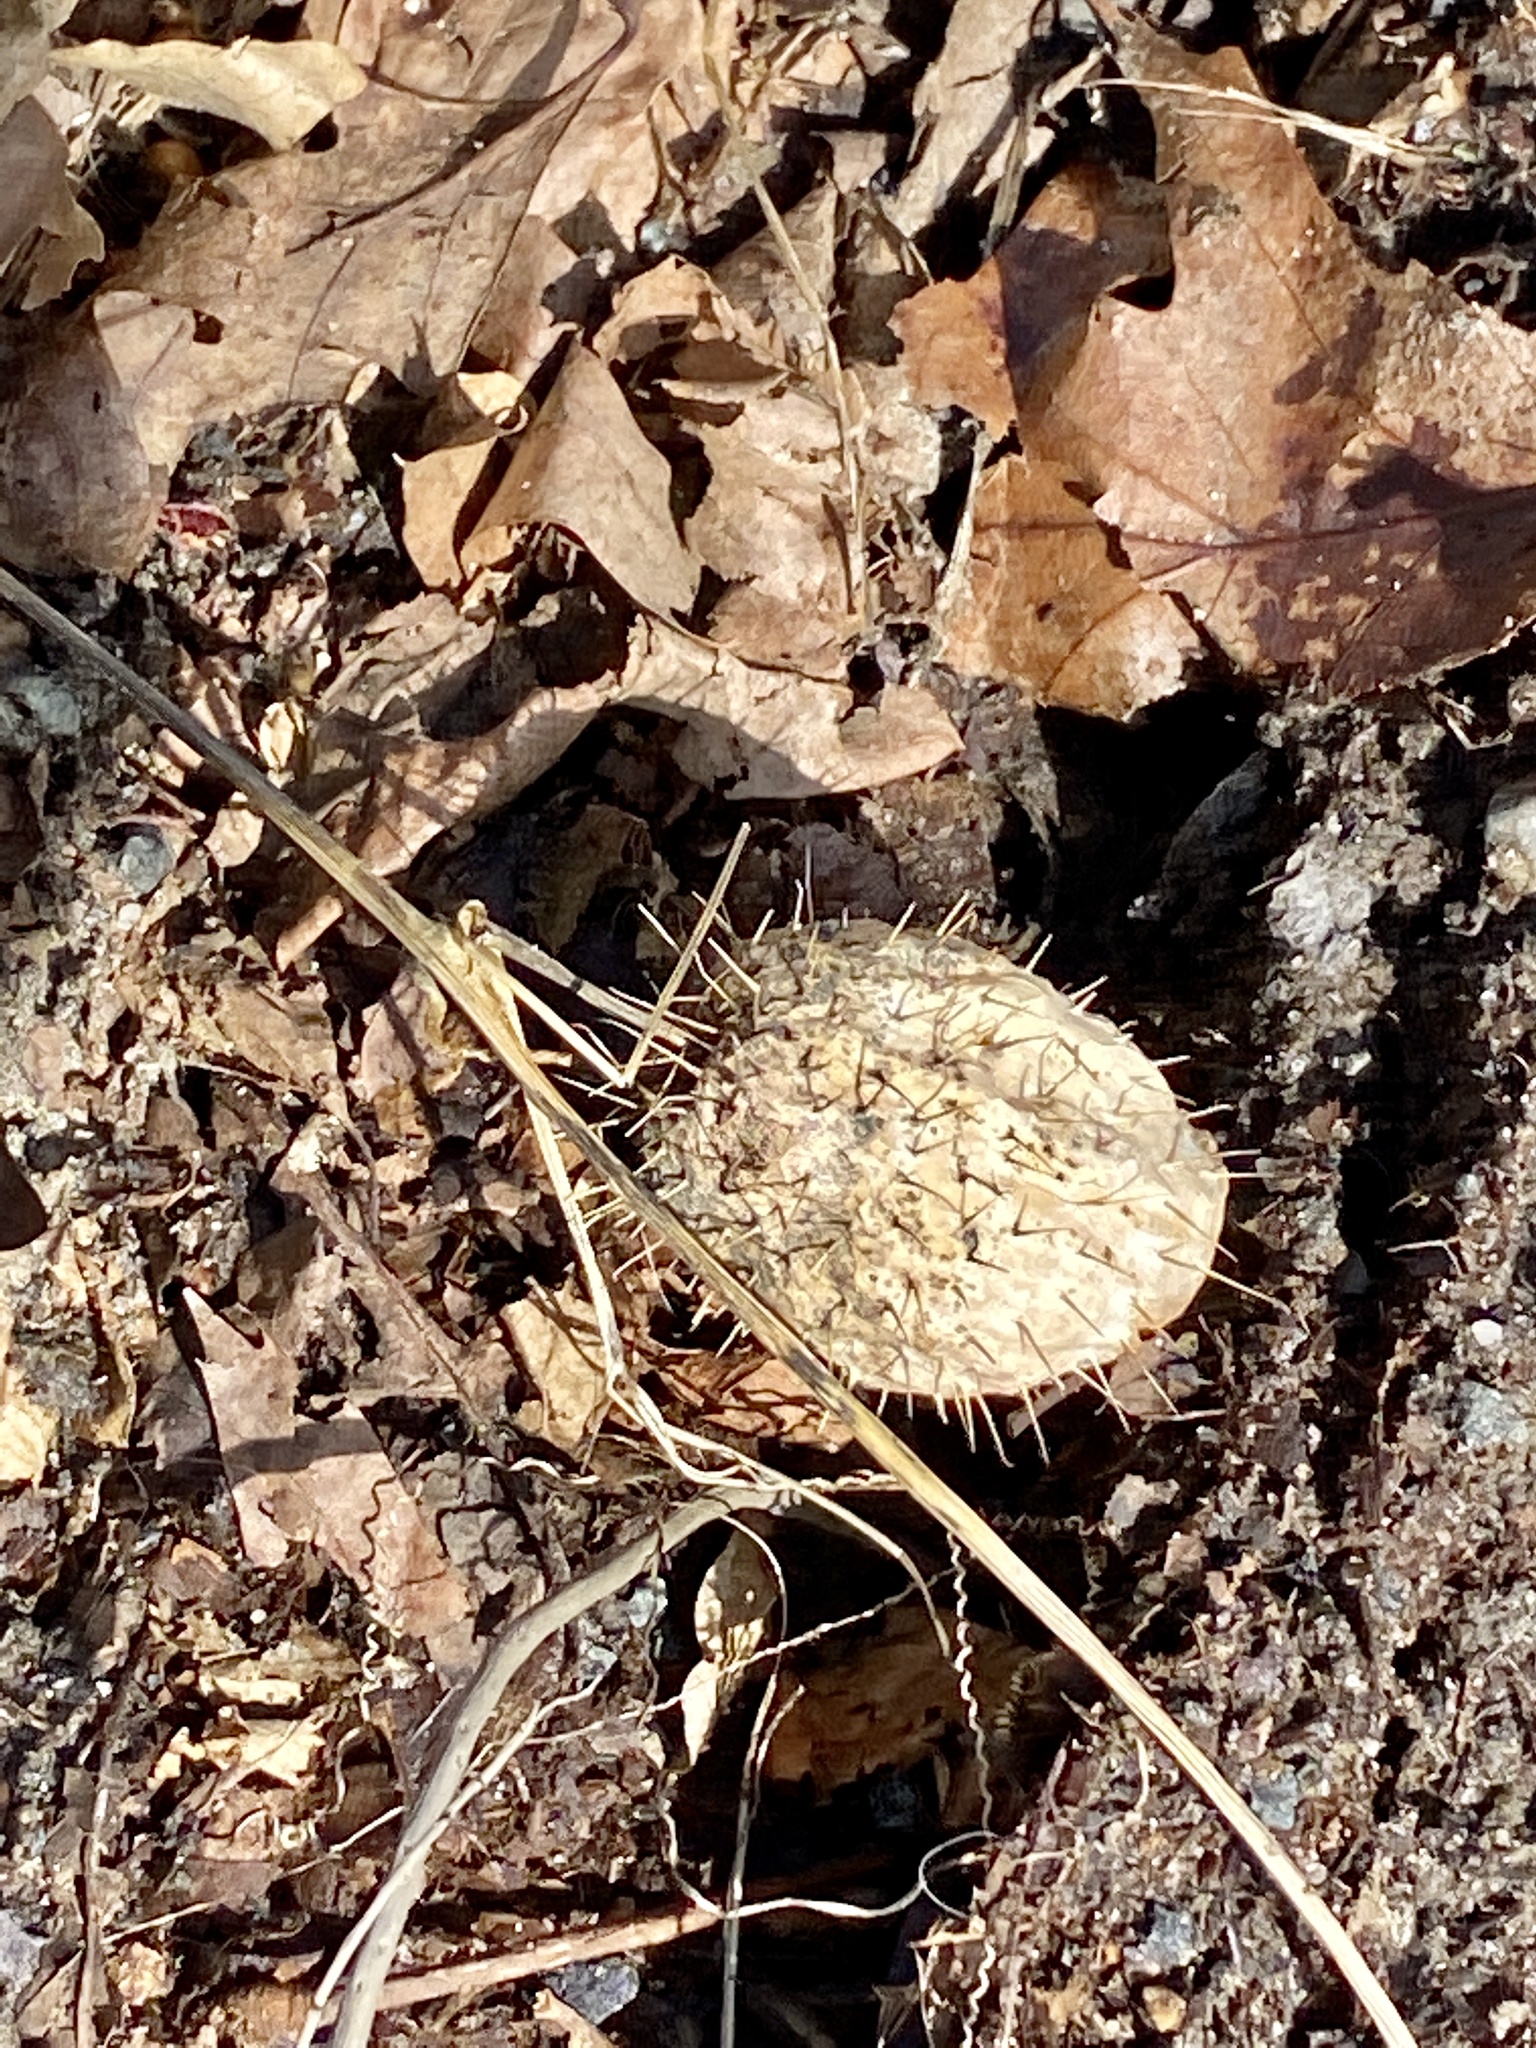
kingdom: Plantae
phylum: Tracheophyta
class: Magnoliopsida
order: Cucurbitales
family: Cucurbitaceae
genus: Echinocystis
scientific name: Echinocystis lobata
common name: Wild cucumber
